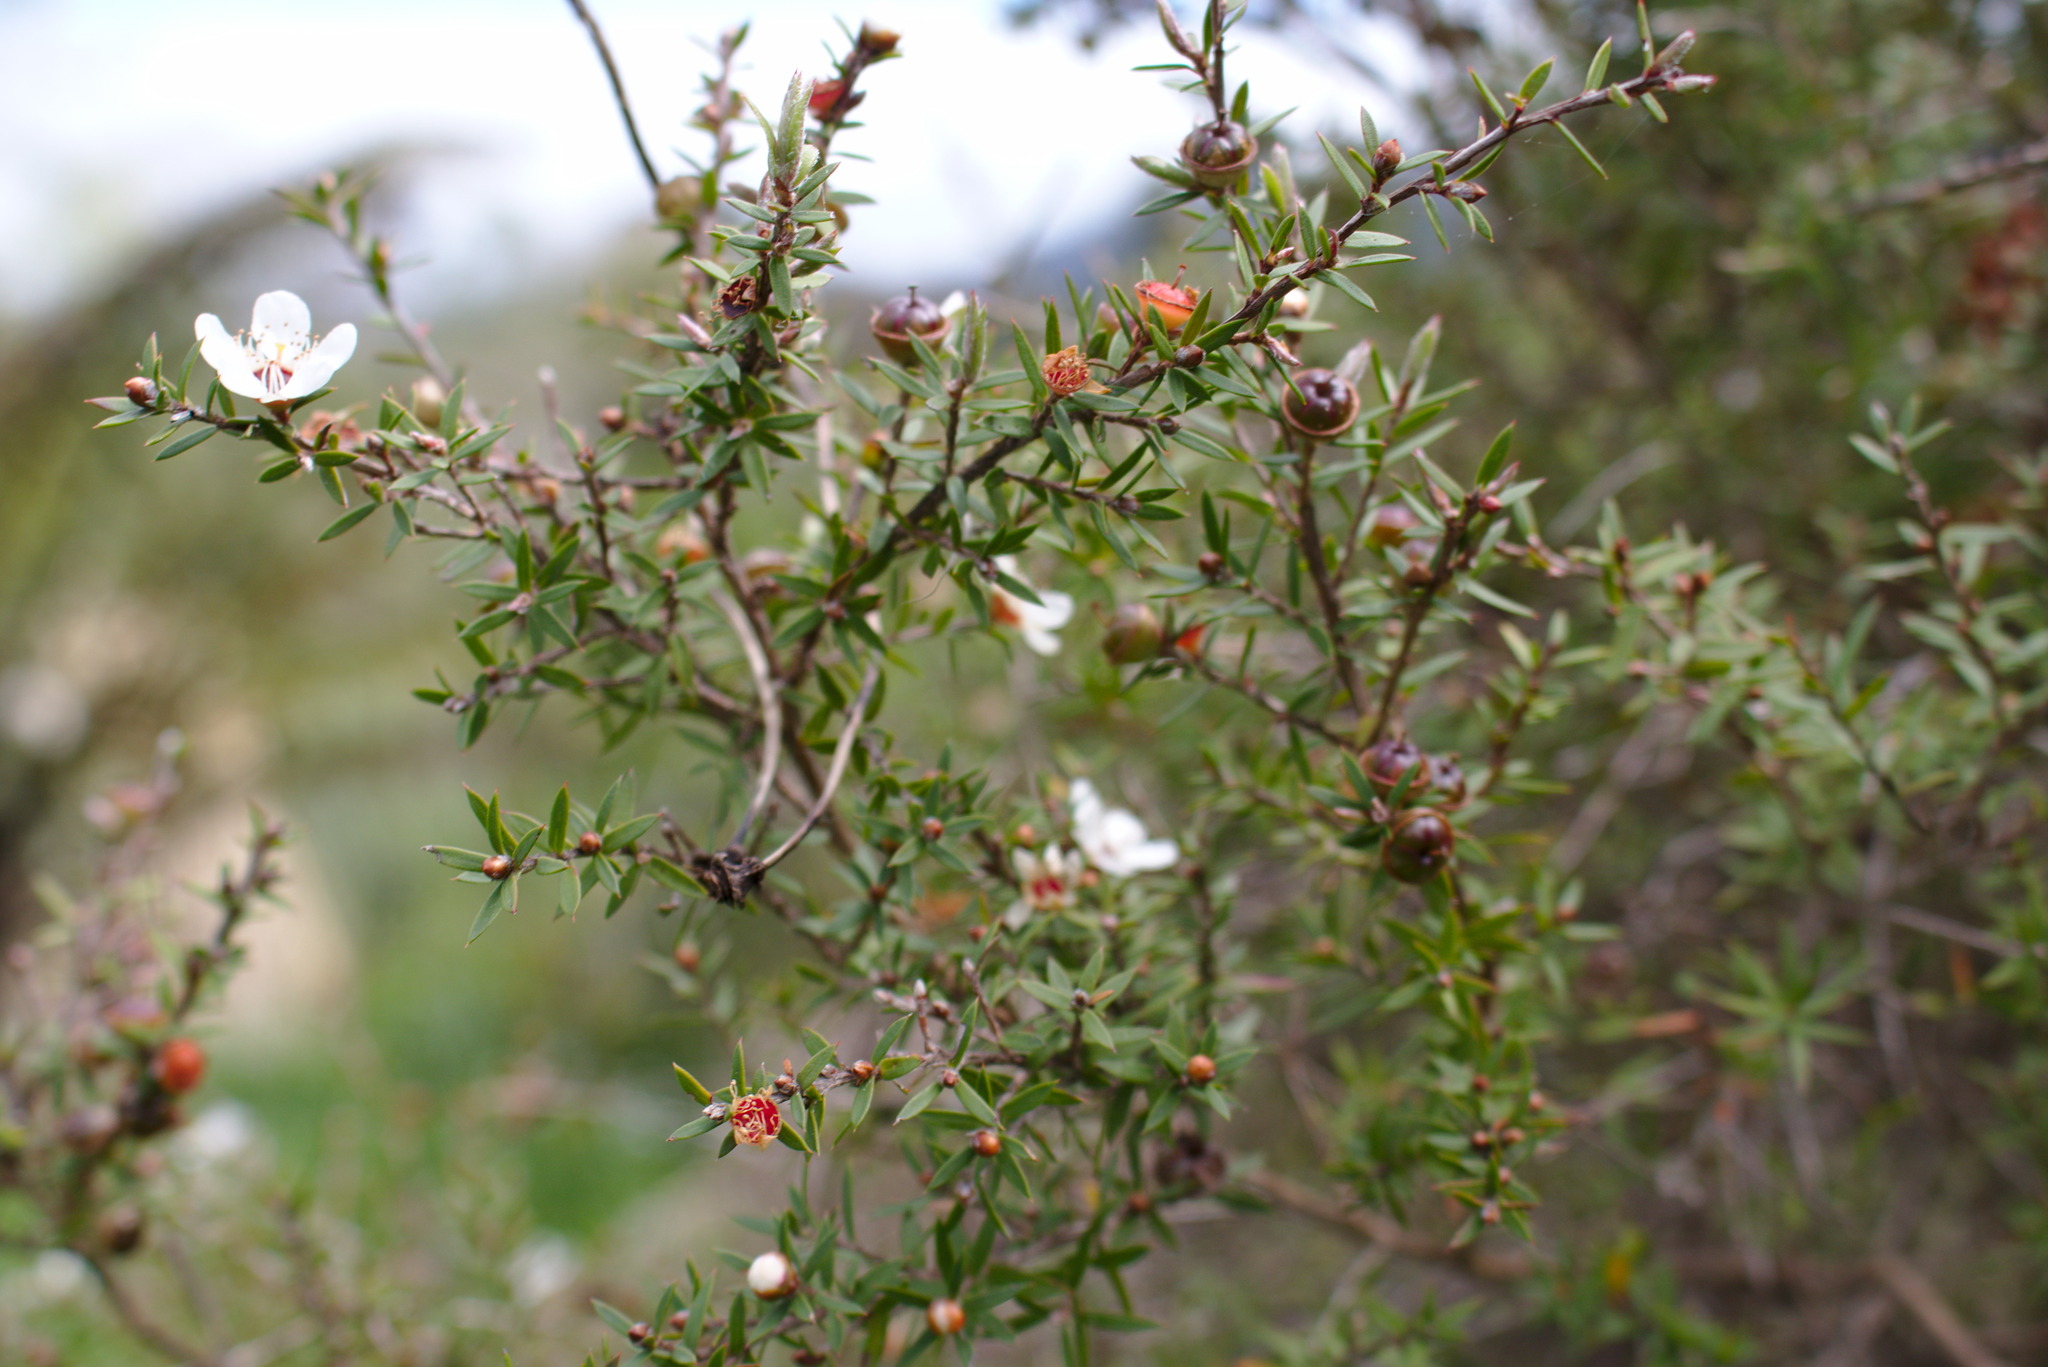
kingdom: Plantae
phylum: Tracheophyta
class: Magnoliopsida
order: Myrtales
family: Myrtaceae
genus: Leptospermum
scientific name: Leptospermum scoparium
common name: Broom tea-tree
